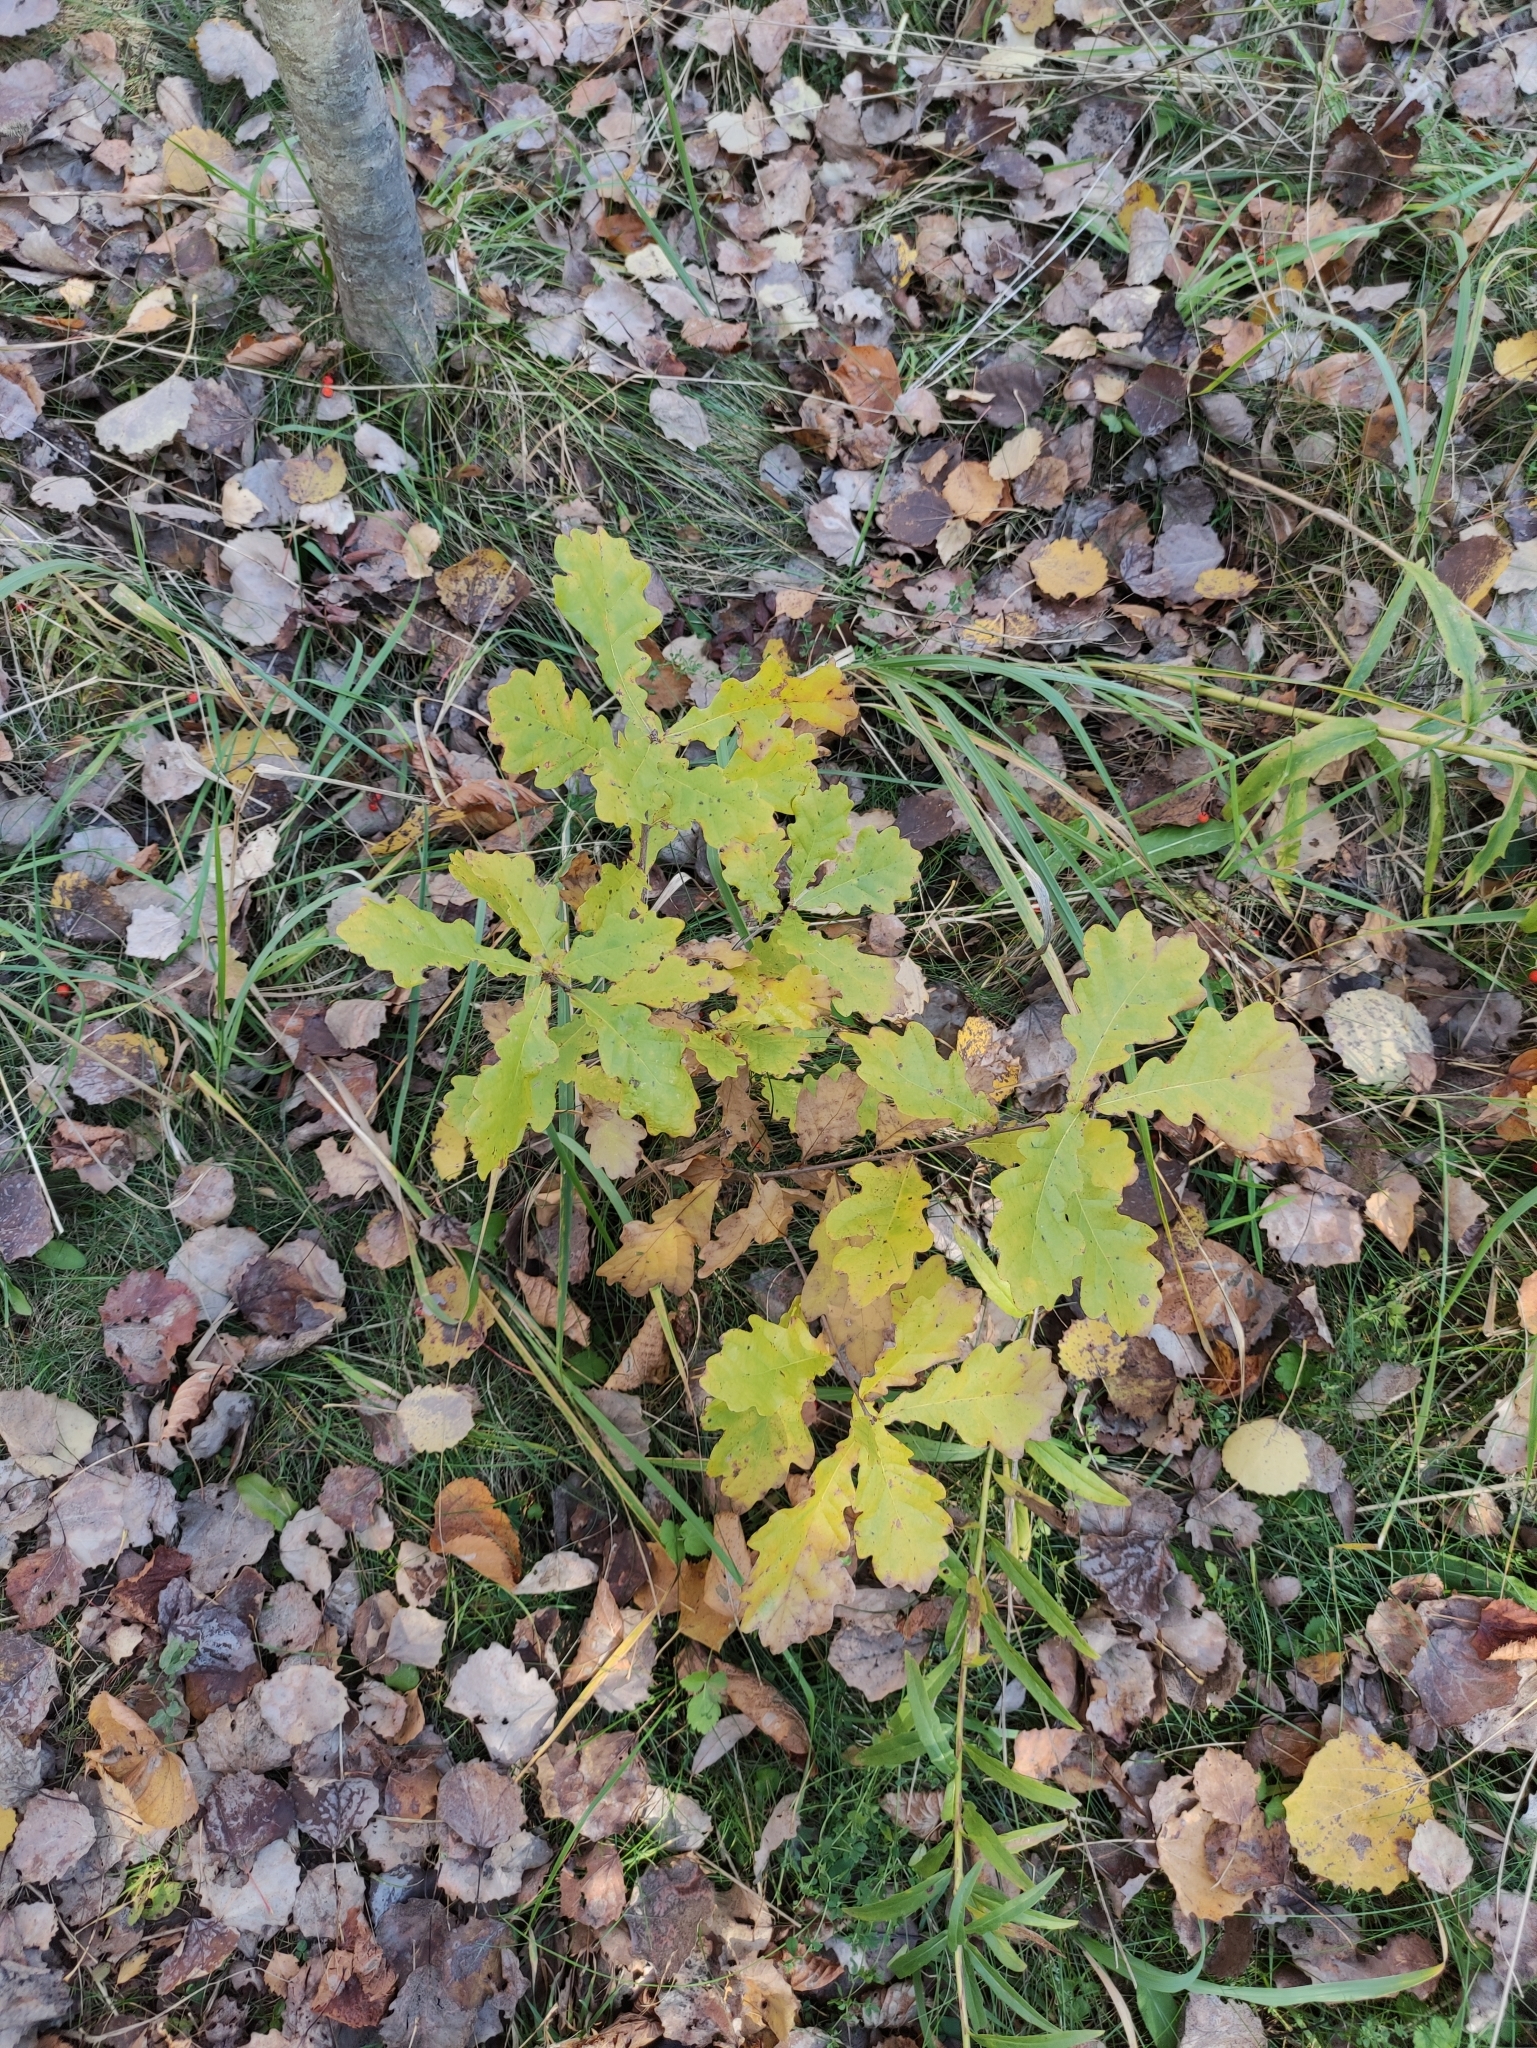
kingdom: Plantae
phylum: Tracheophyta
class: Magnoliopsida
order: Fagales
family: Fagaceae
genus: Quercus
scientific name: Quercus robur
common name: Pedunculate oak
